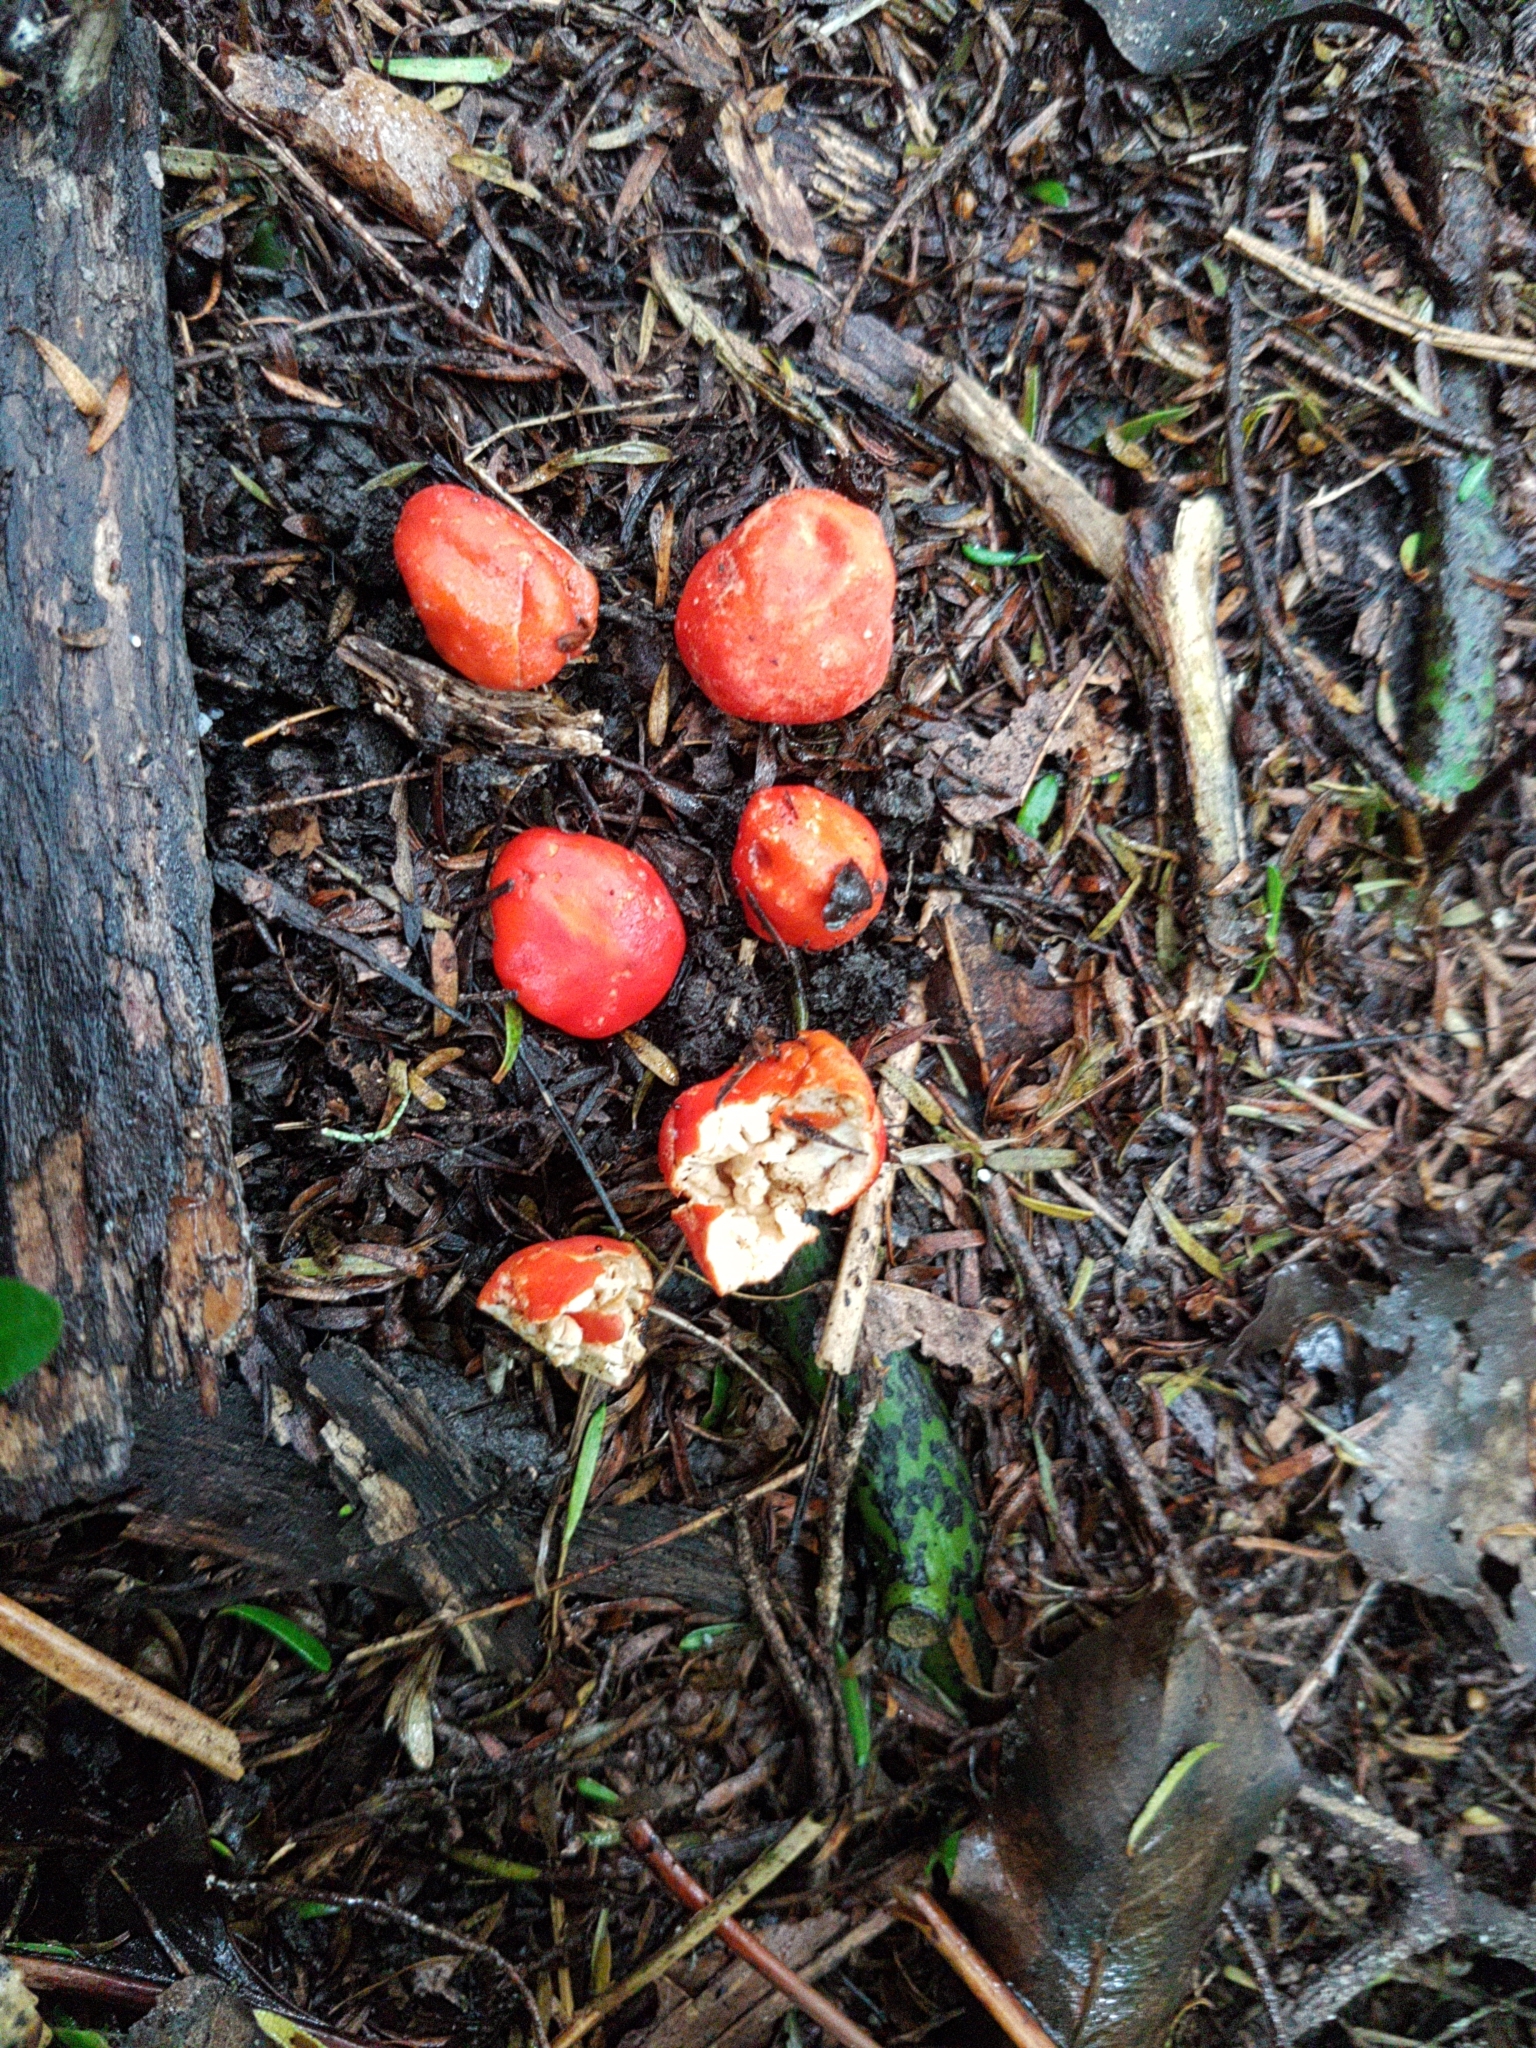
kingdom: Fungi
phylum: Ascomycota
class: Pezizomycetes
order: Pezizales
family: Pyronemataceae
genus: Paurocotylis
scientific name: Paurocotylis pila
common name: Scarlet berry truffle
